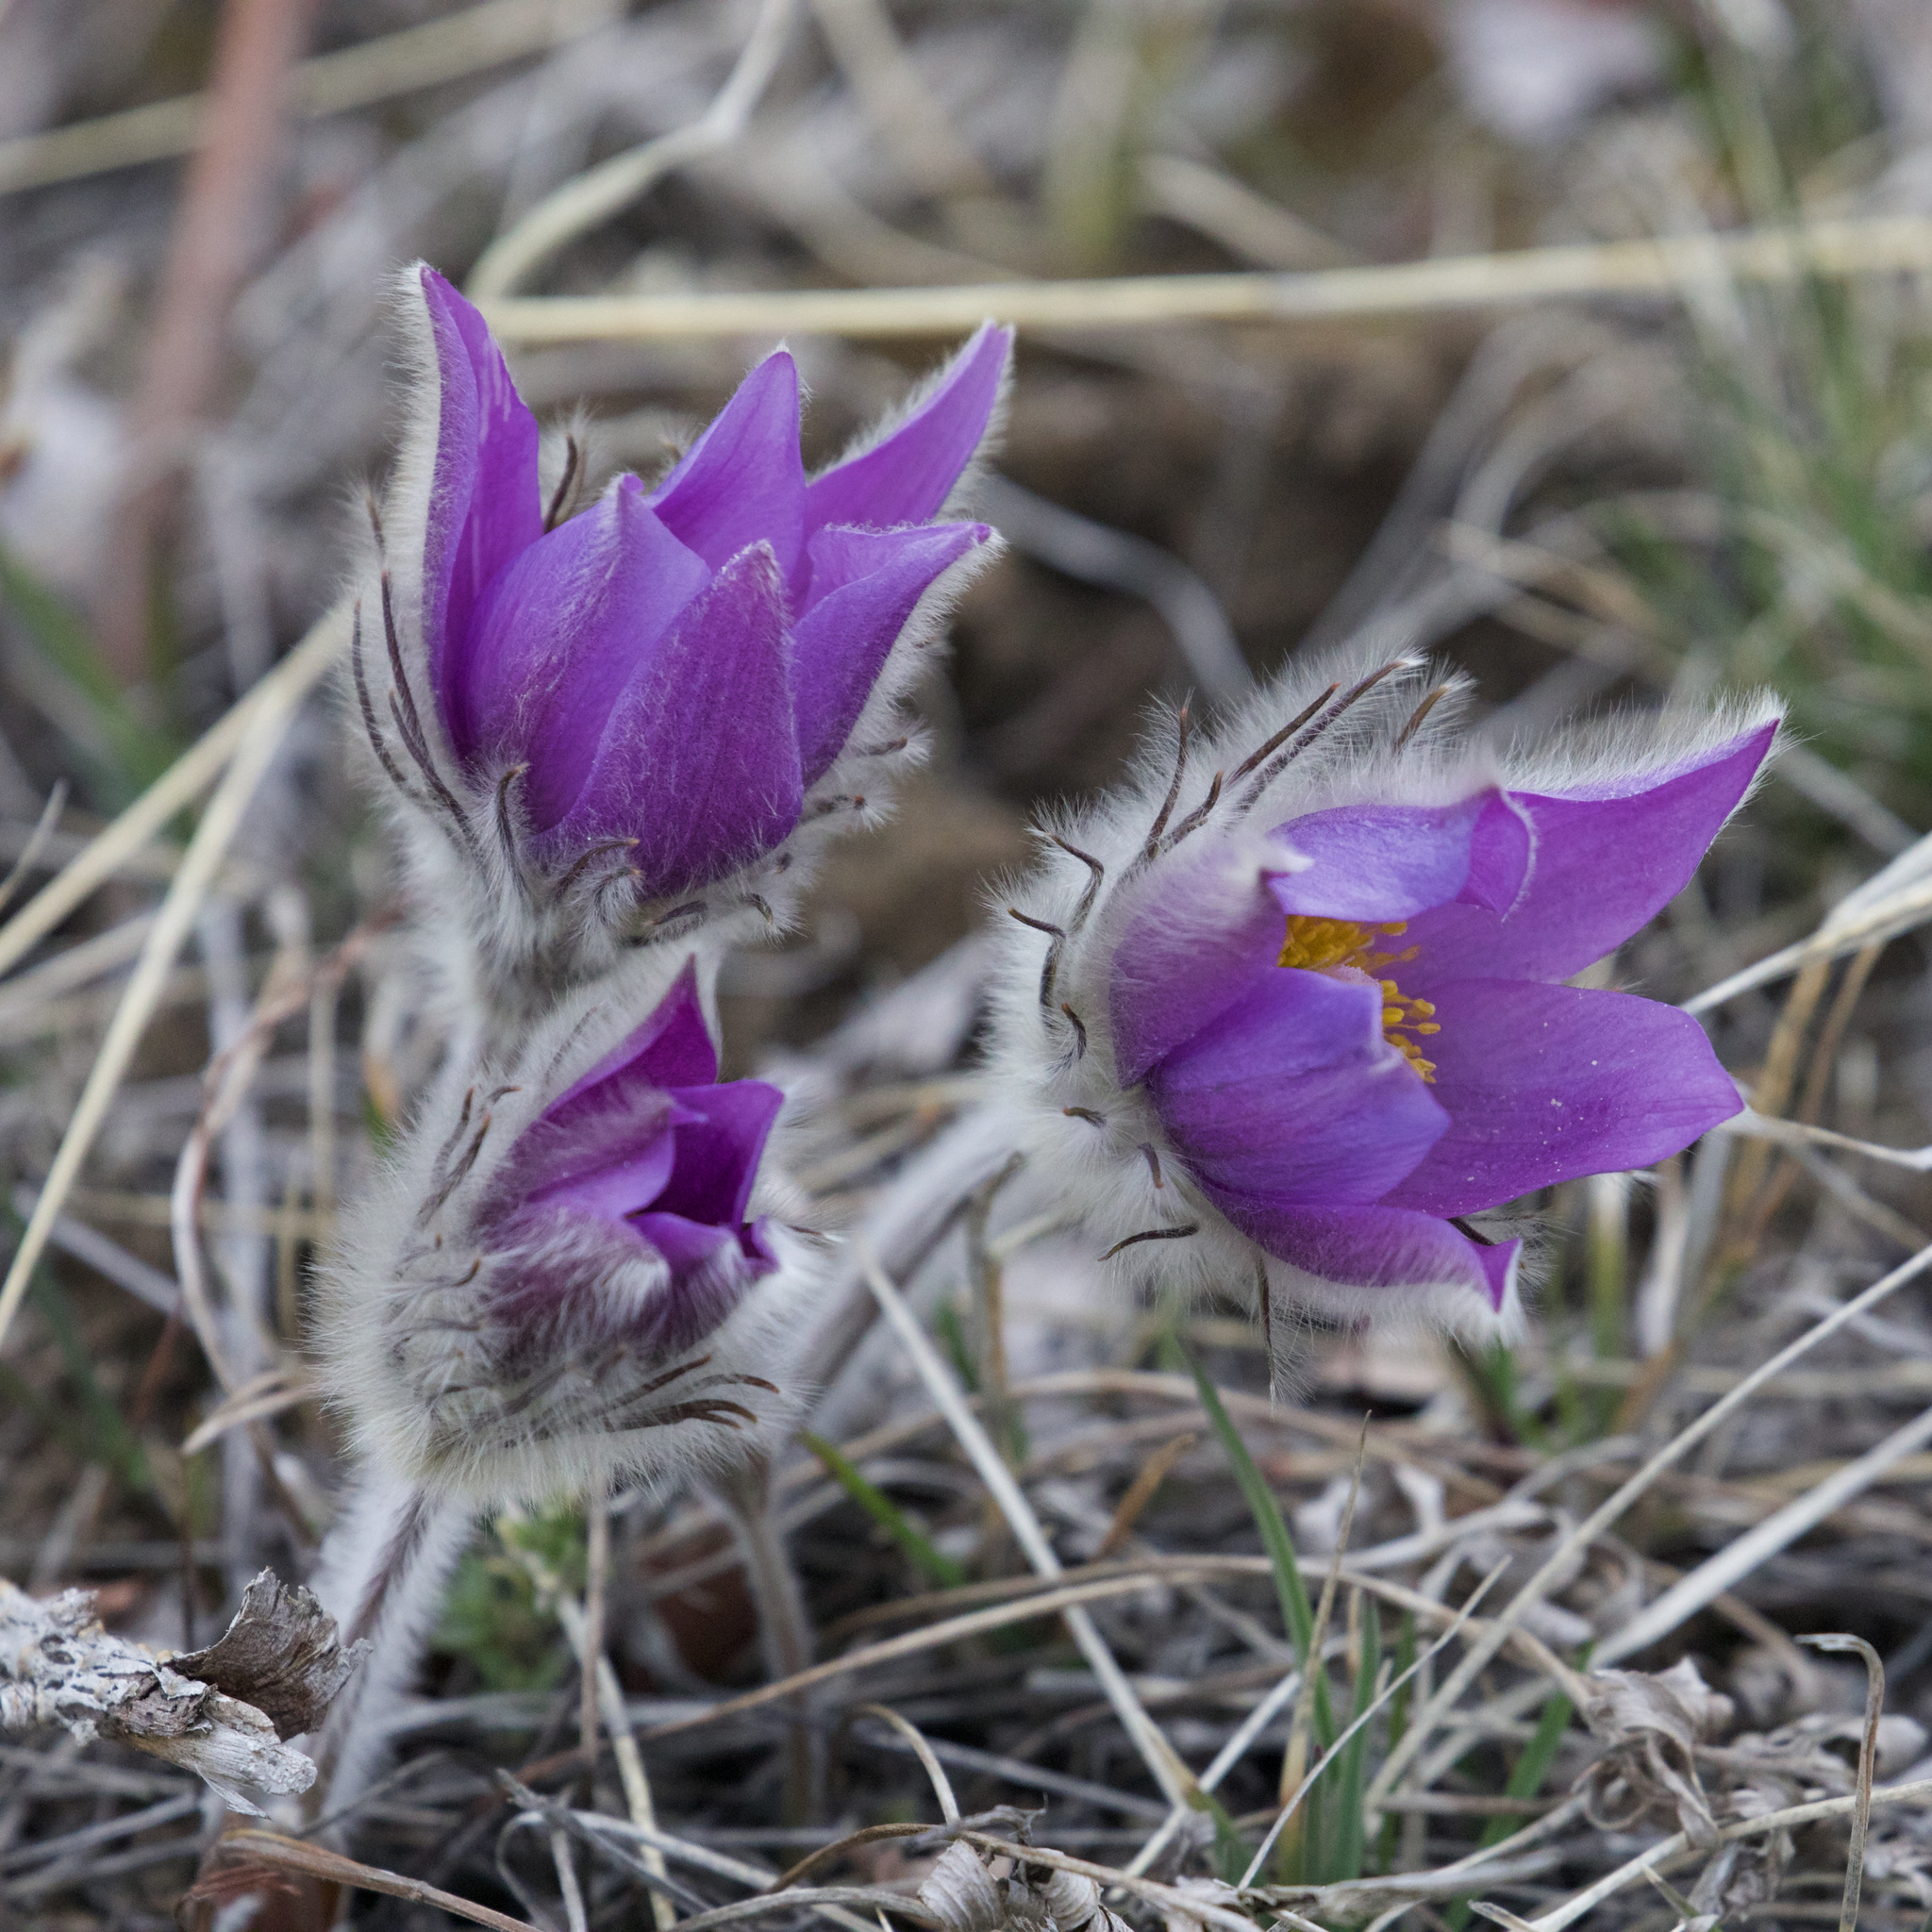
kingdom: Plantae
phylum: Tracheophyta
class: Magnoliopsida
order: Ranunculales
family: Ranunculaceae
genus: Pulsatilla
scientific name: Pulsatilla nuttalliana
